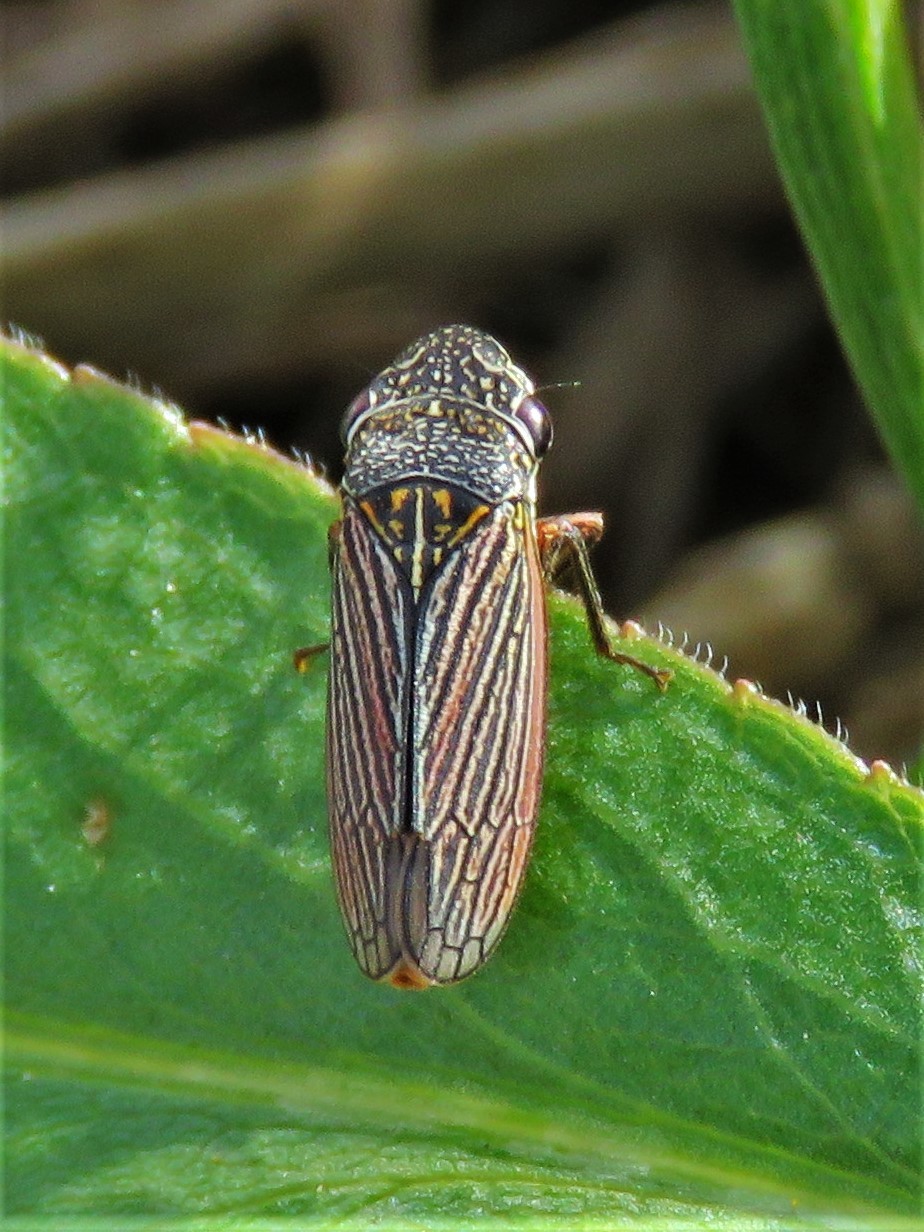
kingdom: Animalia
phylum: Arthropoda
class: Insecta
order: Hemiptera
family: Cicadellidae
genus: Cuerna
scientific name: Cuerna costalis
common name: Lateral-lined sharpshooter
